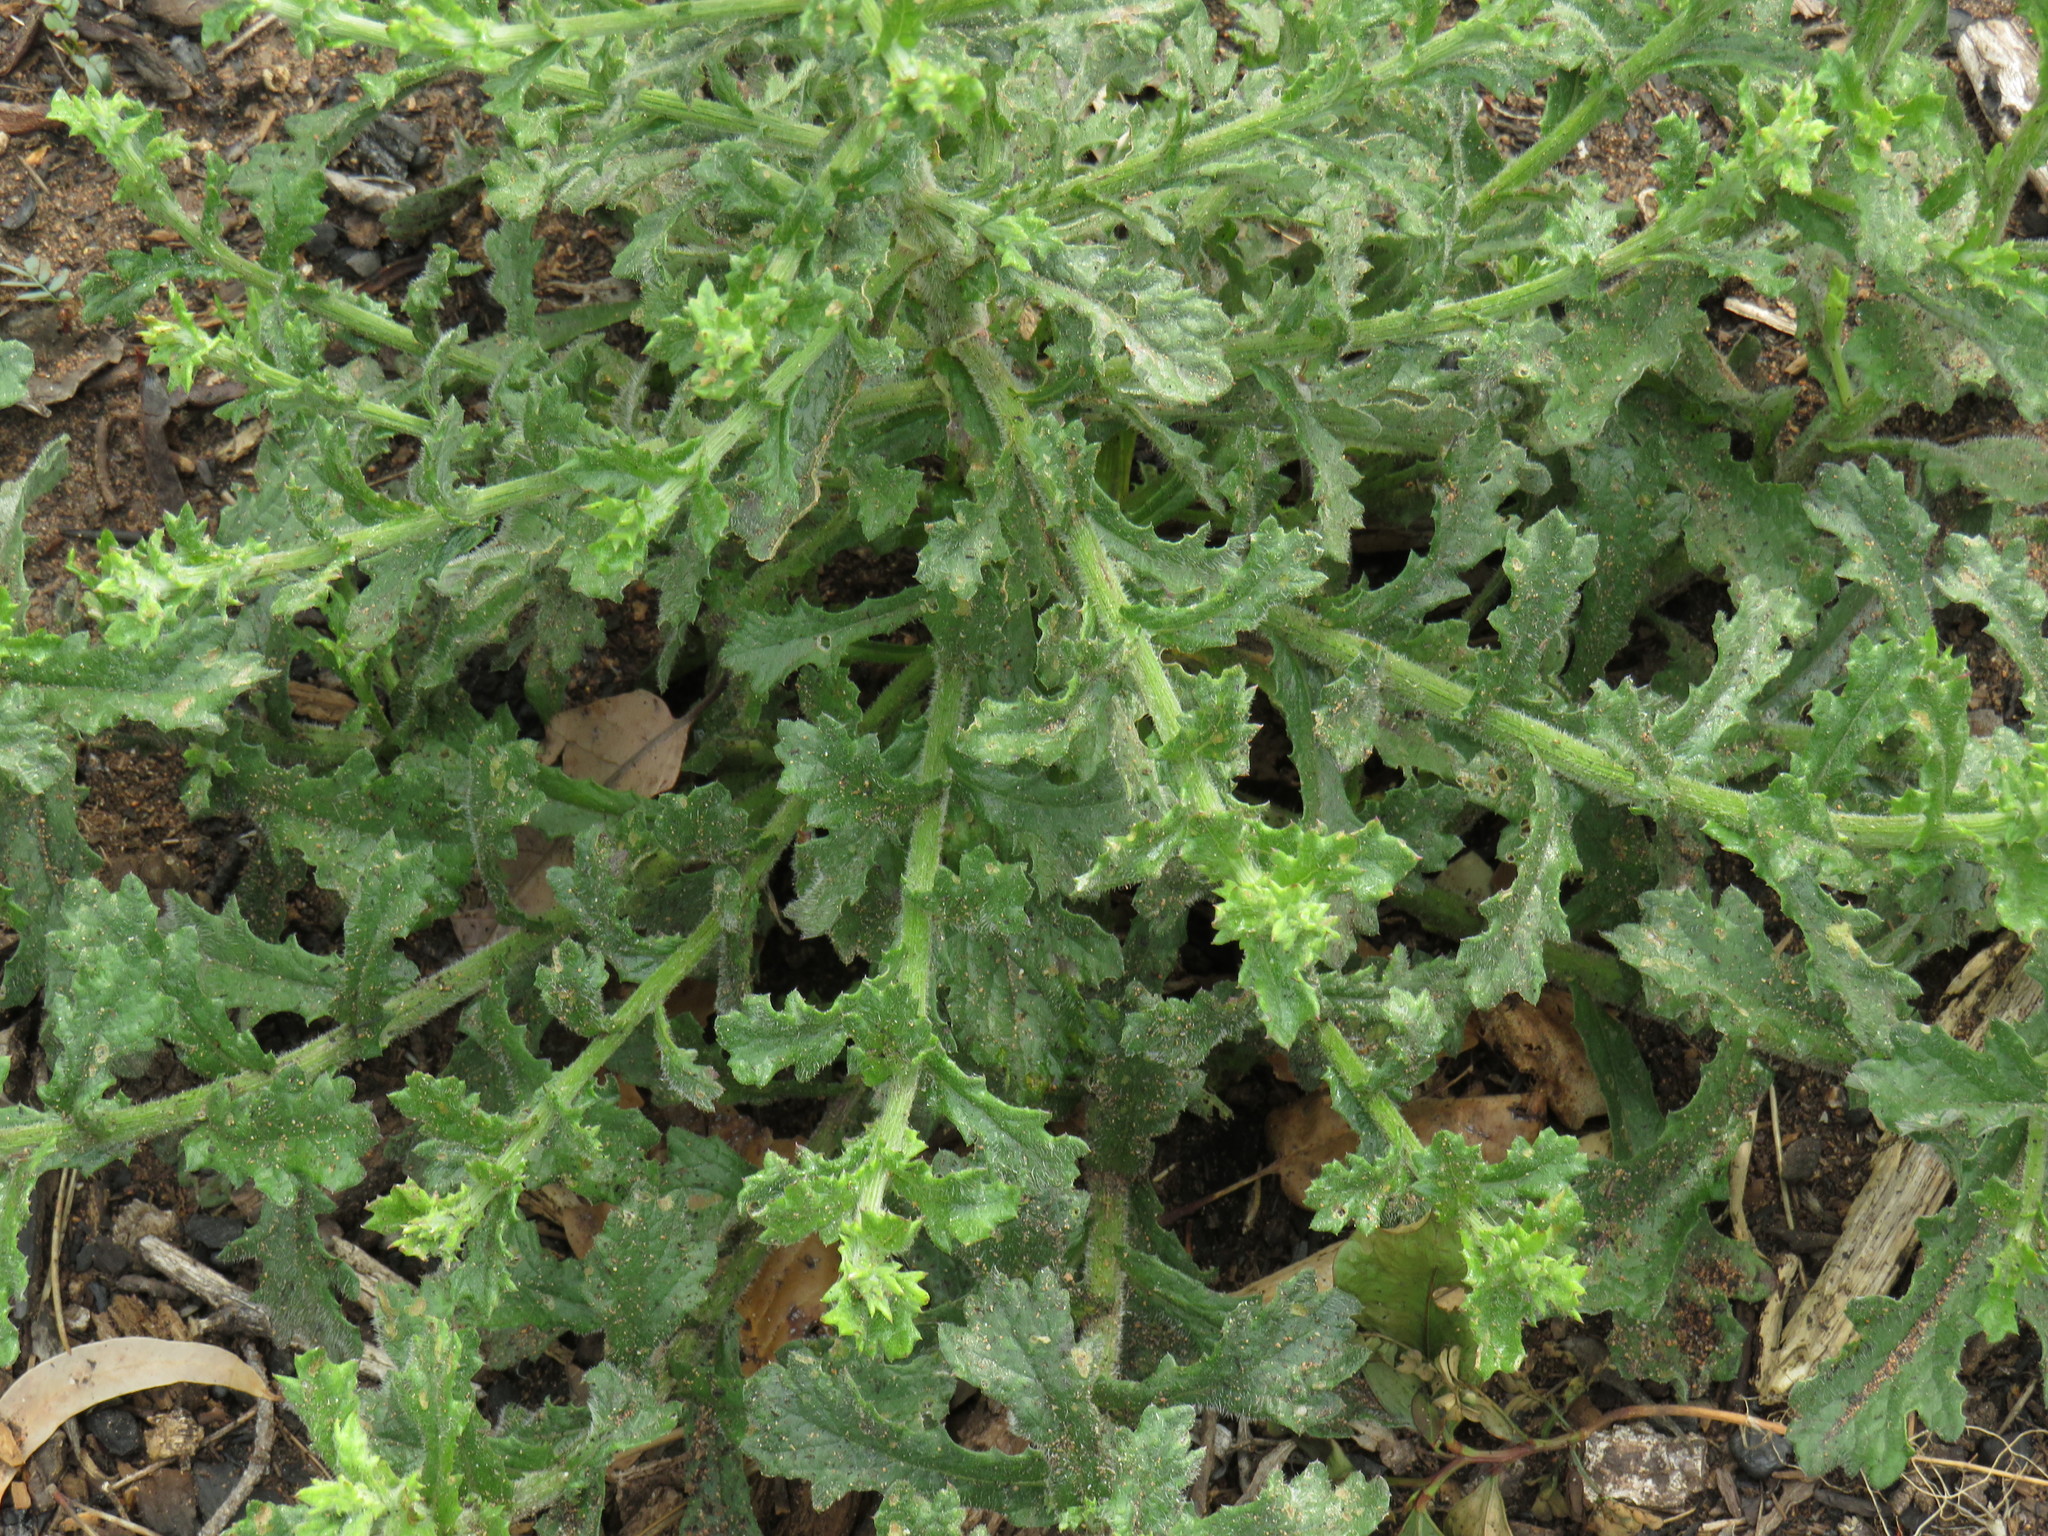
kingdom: Plantae
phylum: Tracheophyta
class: Magnoliopsida
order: Asterales
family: Asteraceae
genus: Senecio
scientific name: Senecio pubigerus
